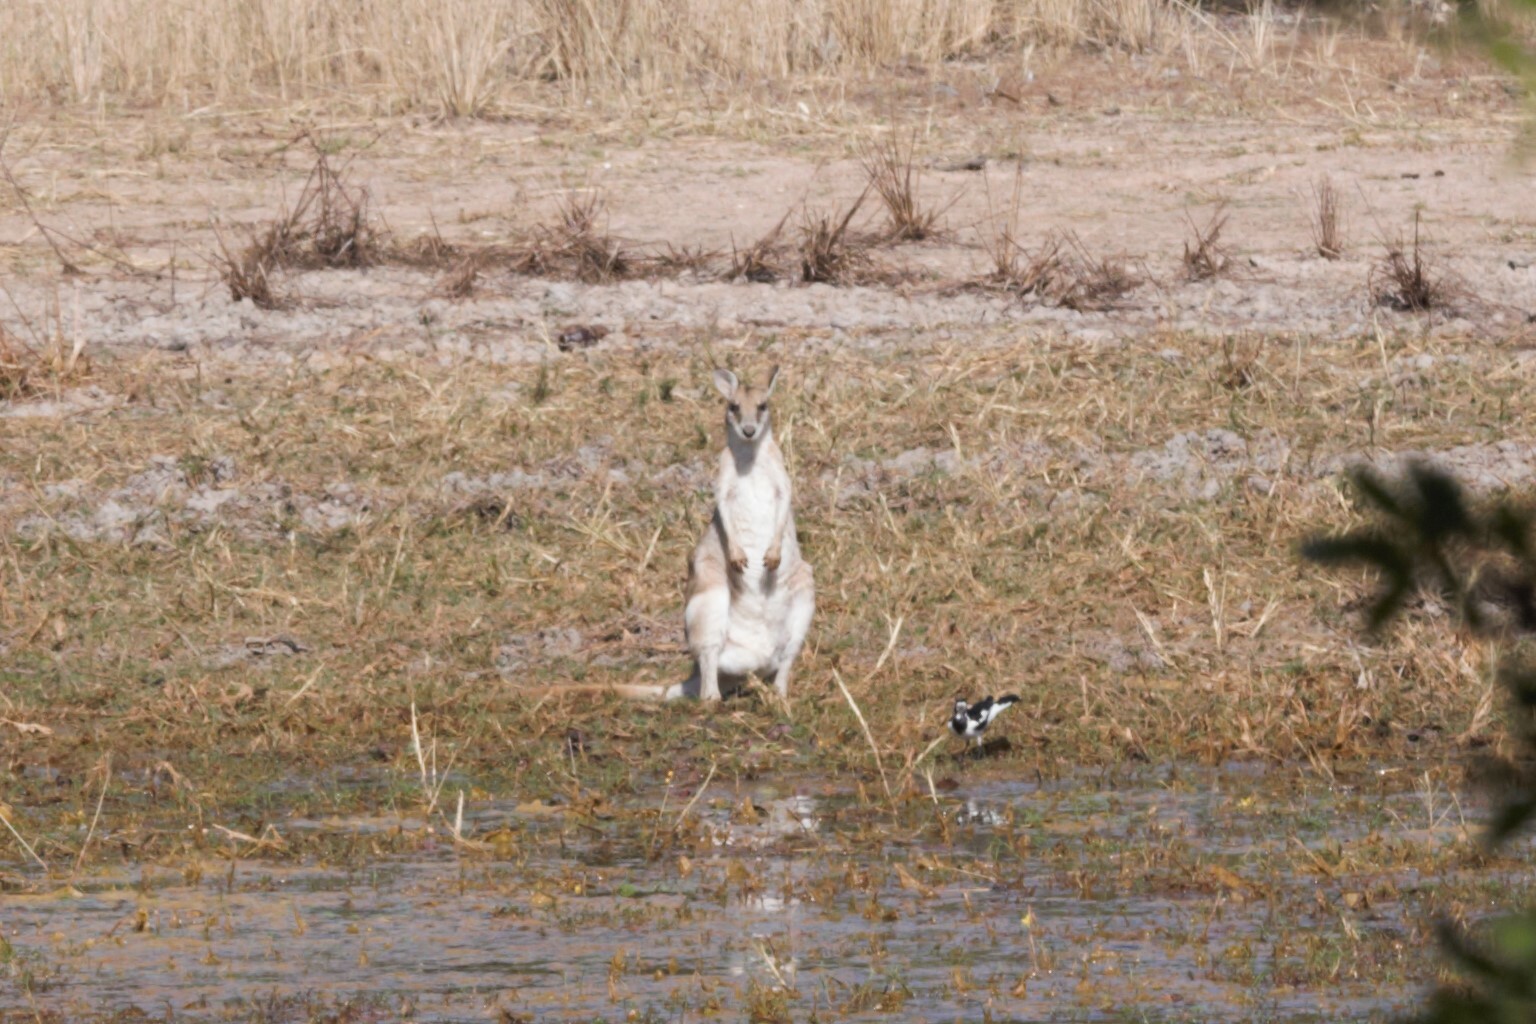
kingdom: Animalia
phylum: Chordata
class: Mammalia
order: Diprotodontia
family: Macropodidae
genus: Macropus
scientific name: Macropus agilis
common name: Agile wallaby
